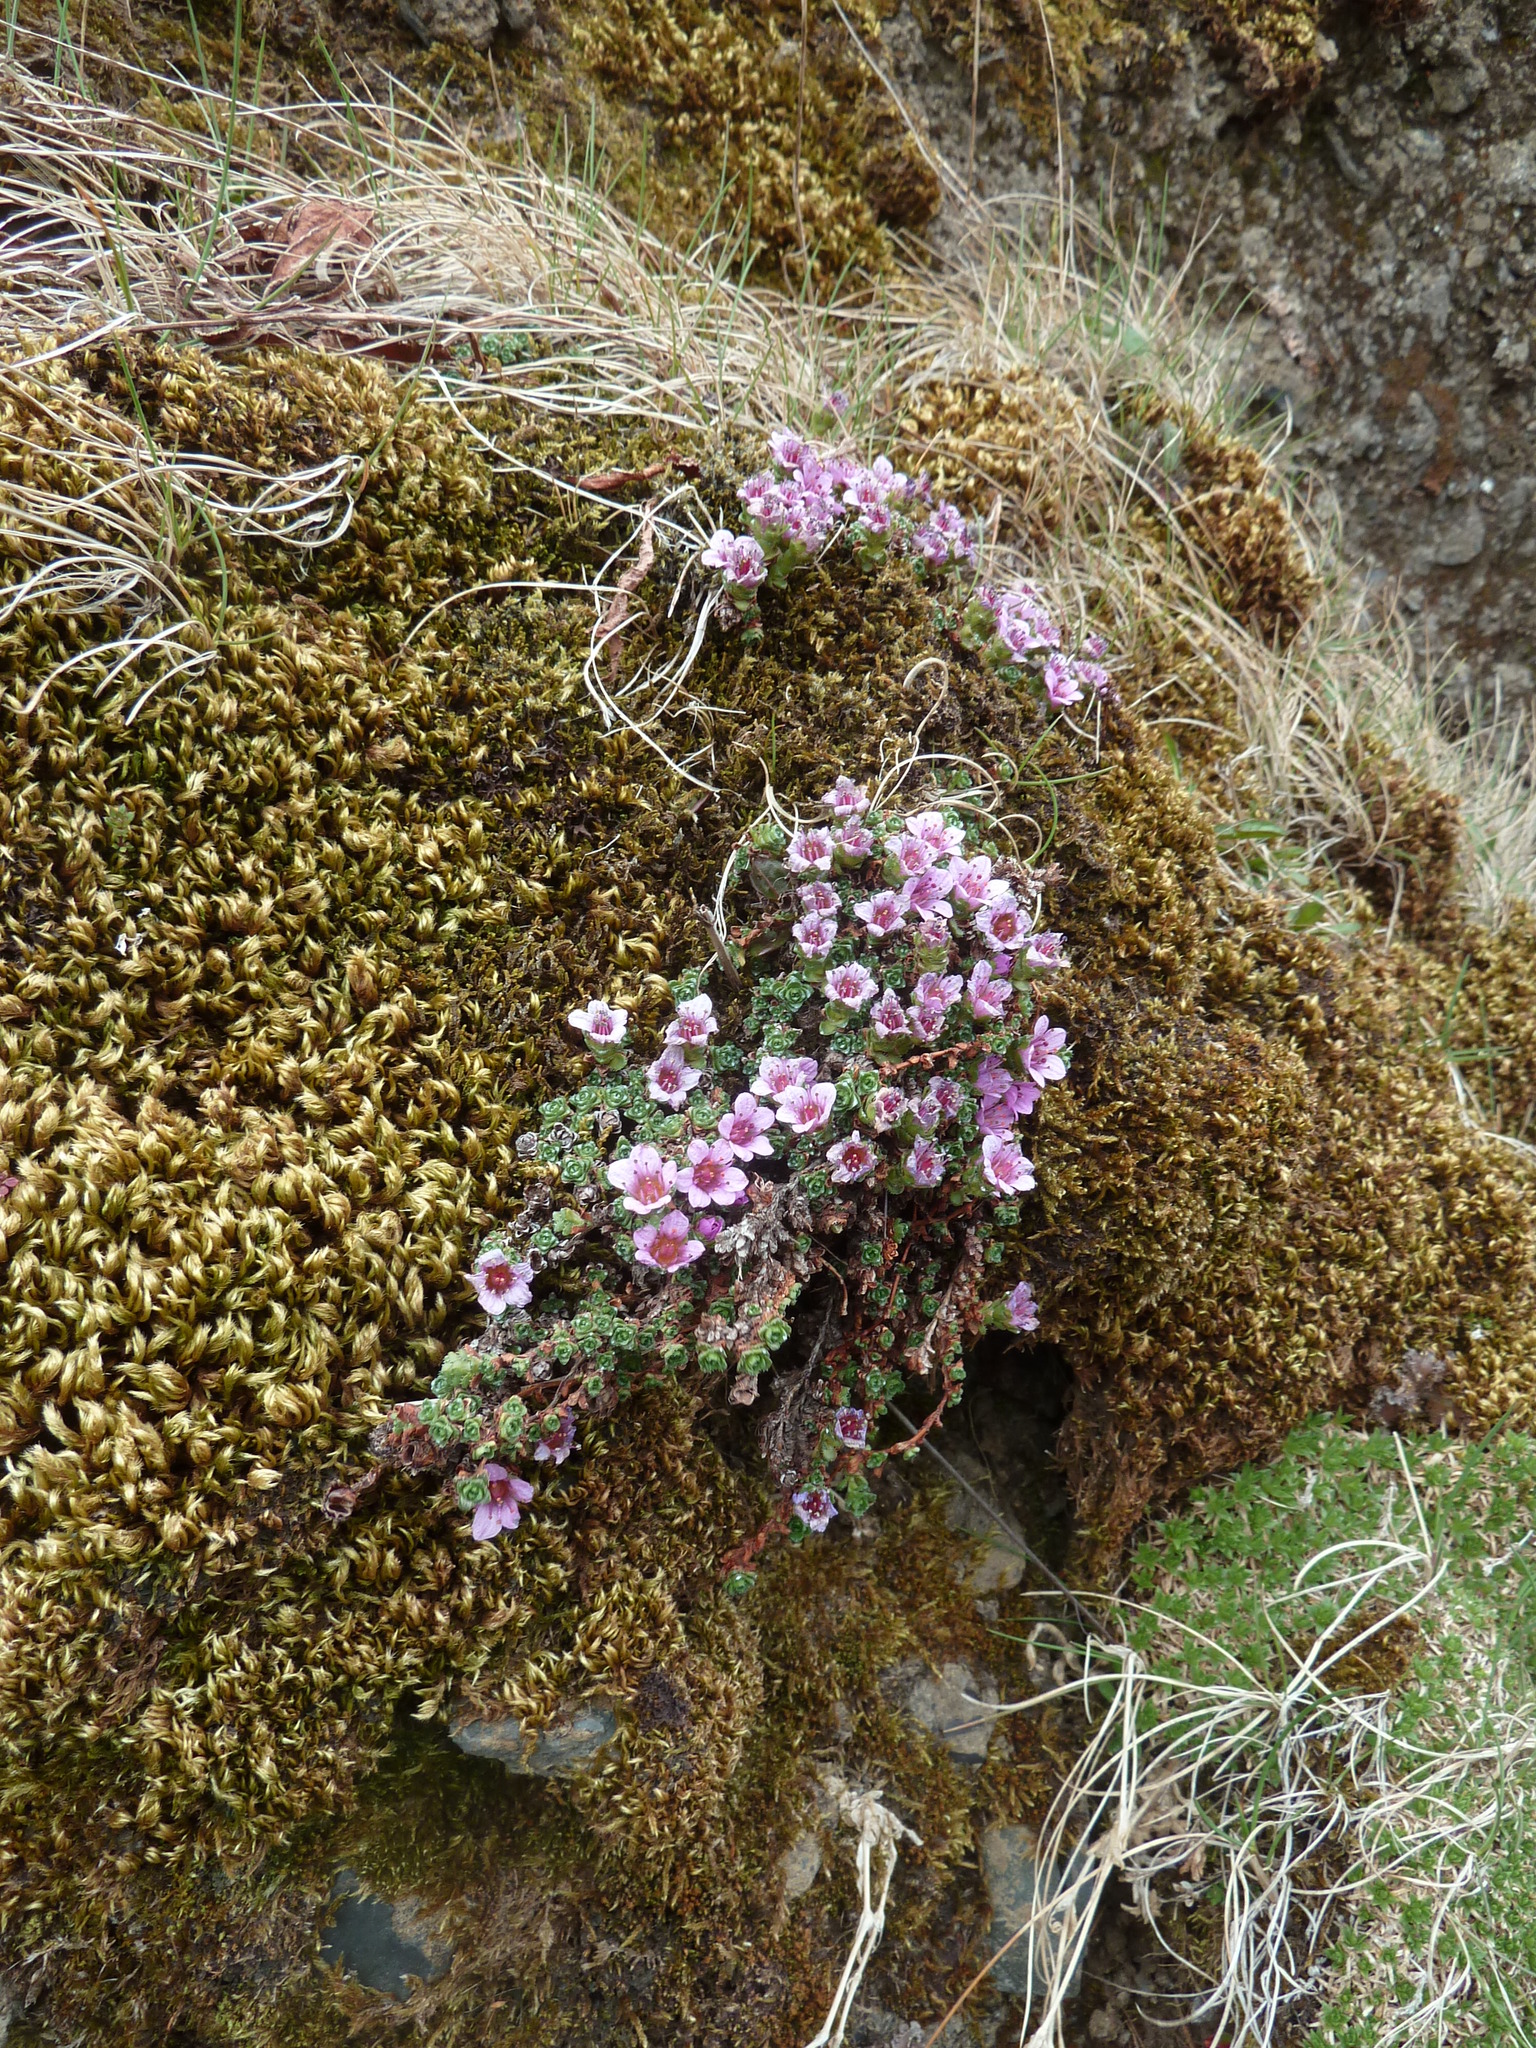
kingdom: Plantae
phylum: Tracheophyta
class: Magnoliopsida
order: Saxifragales
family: Saxifragaceae
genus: Saxifraga
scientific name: Saxifraga oppositifolia
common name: Purple saxifrage
